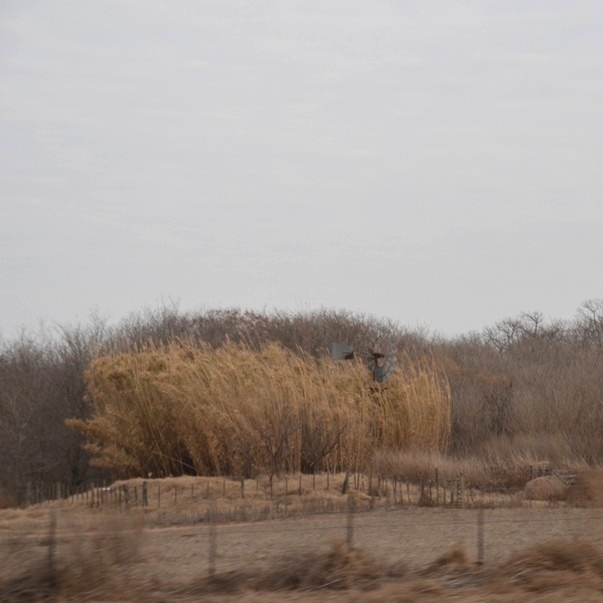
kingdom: Plantae
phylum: Tracheophyta
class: Liliopsida
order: Poales
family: Poaceae
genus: Arundo
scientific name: Arundo donax
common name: Giant reed
